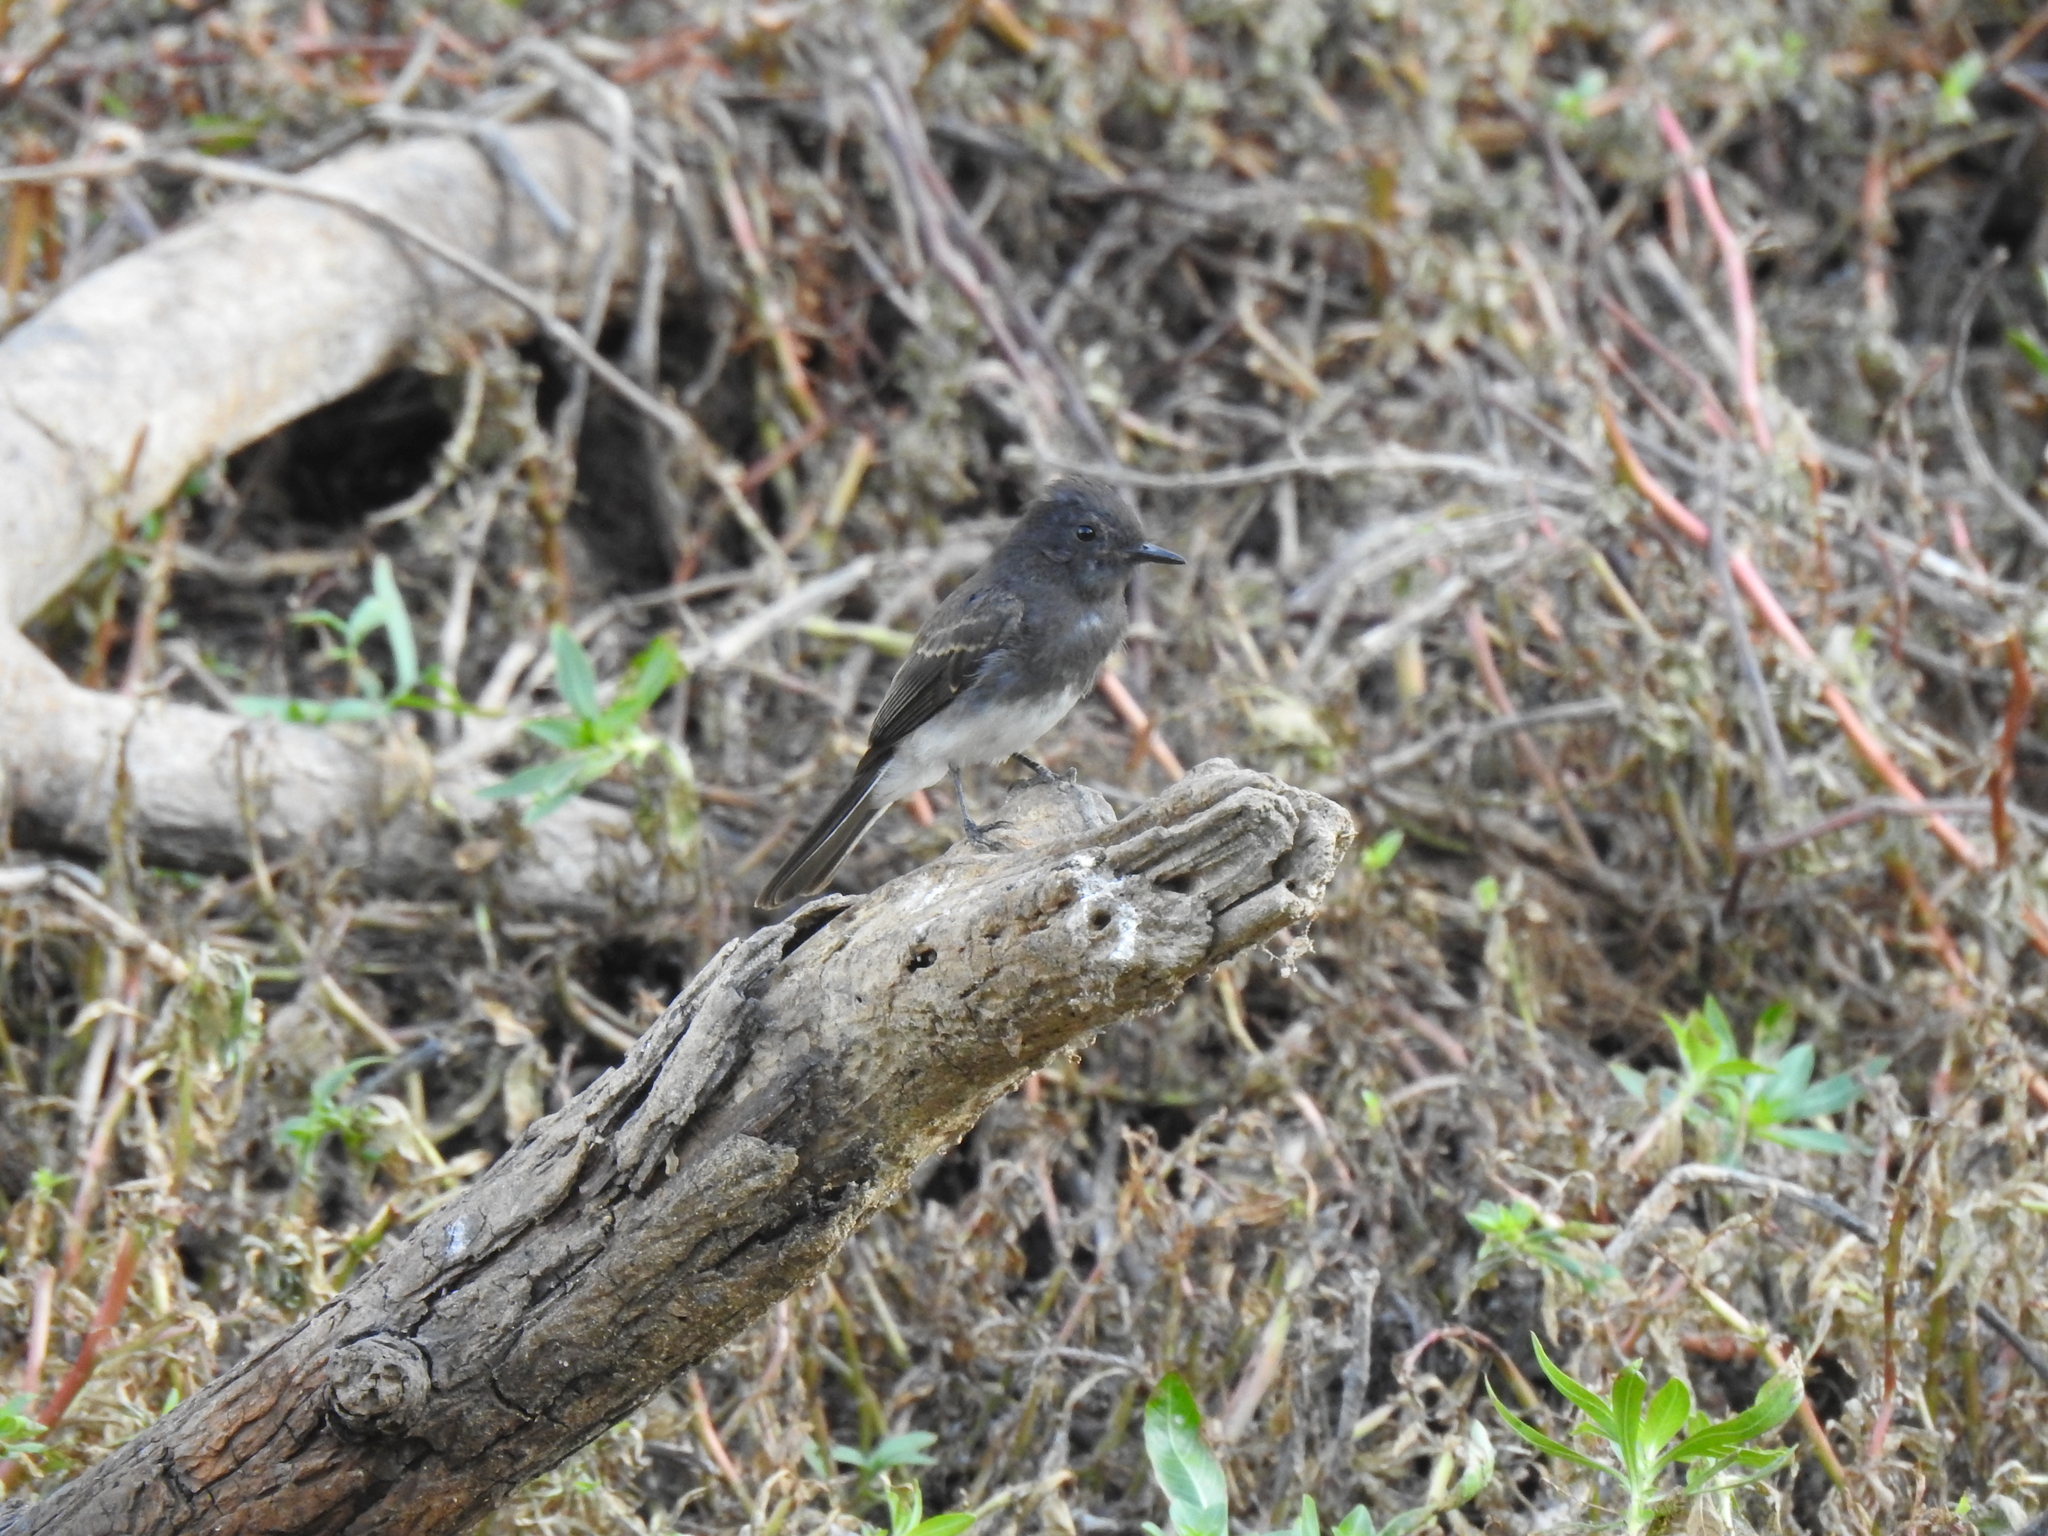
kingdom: Animalia
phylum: Chordata
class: Aves
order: Passeriformes
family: Tyrannidae
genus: Sayornis
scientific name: Sayornis nigricans
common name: Black phoebe
